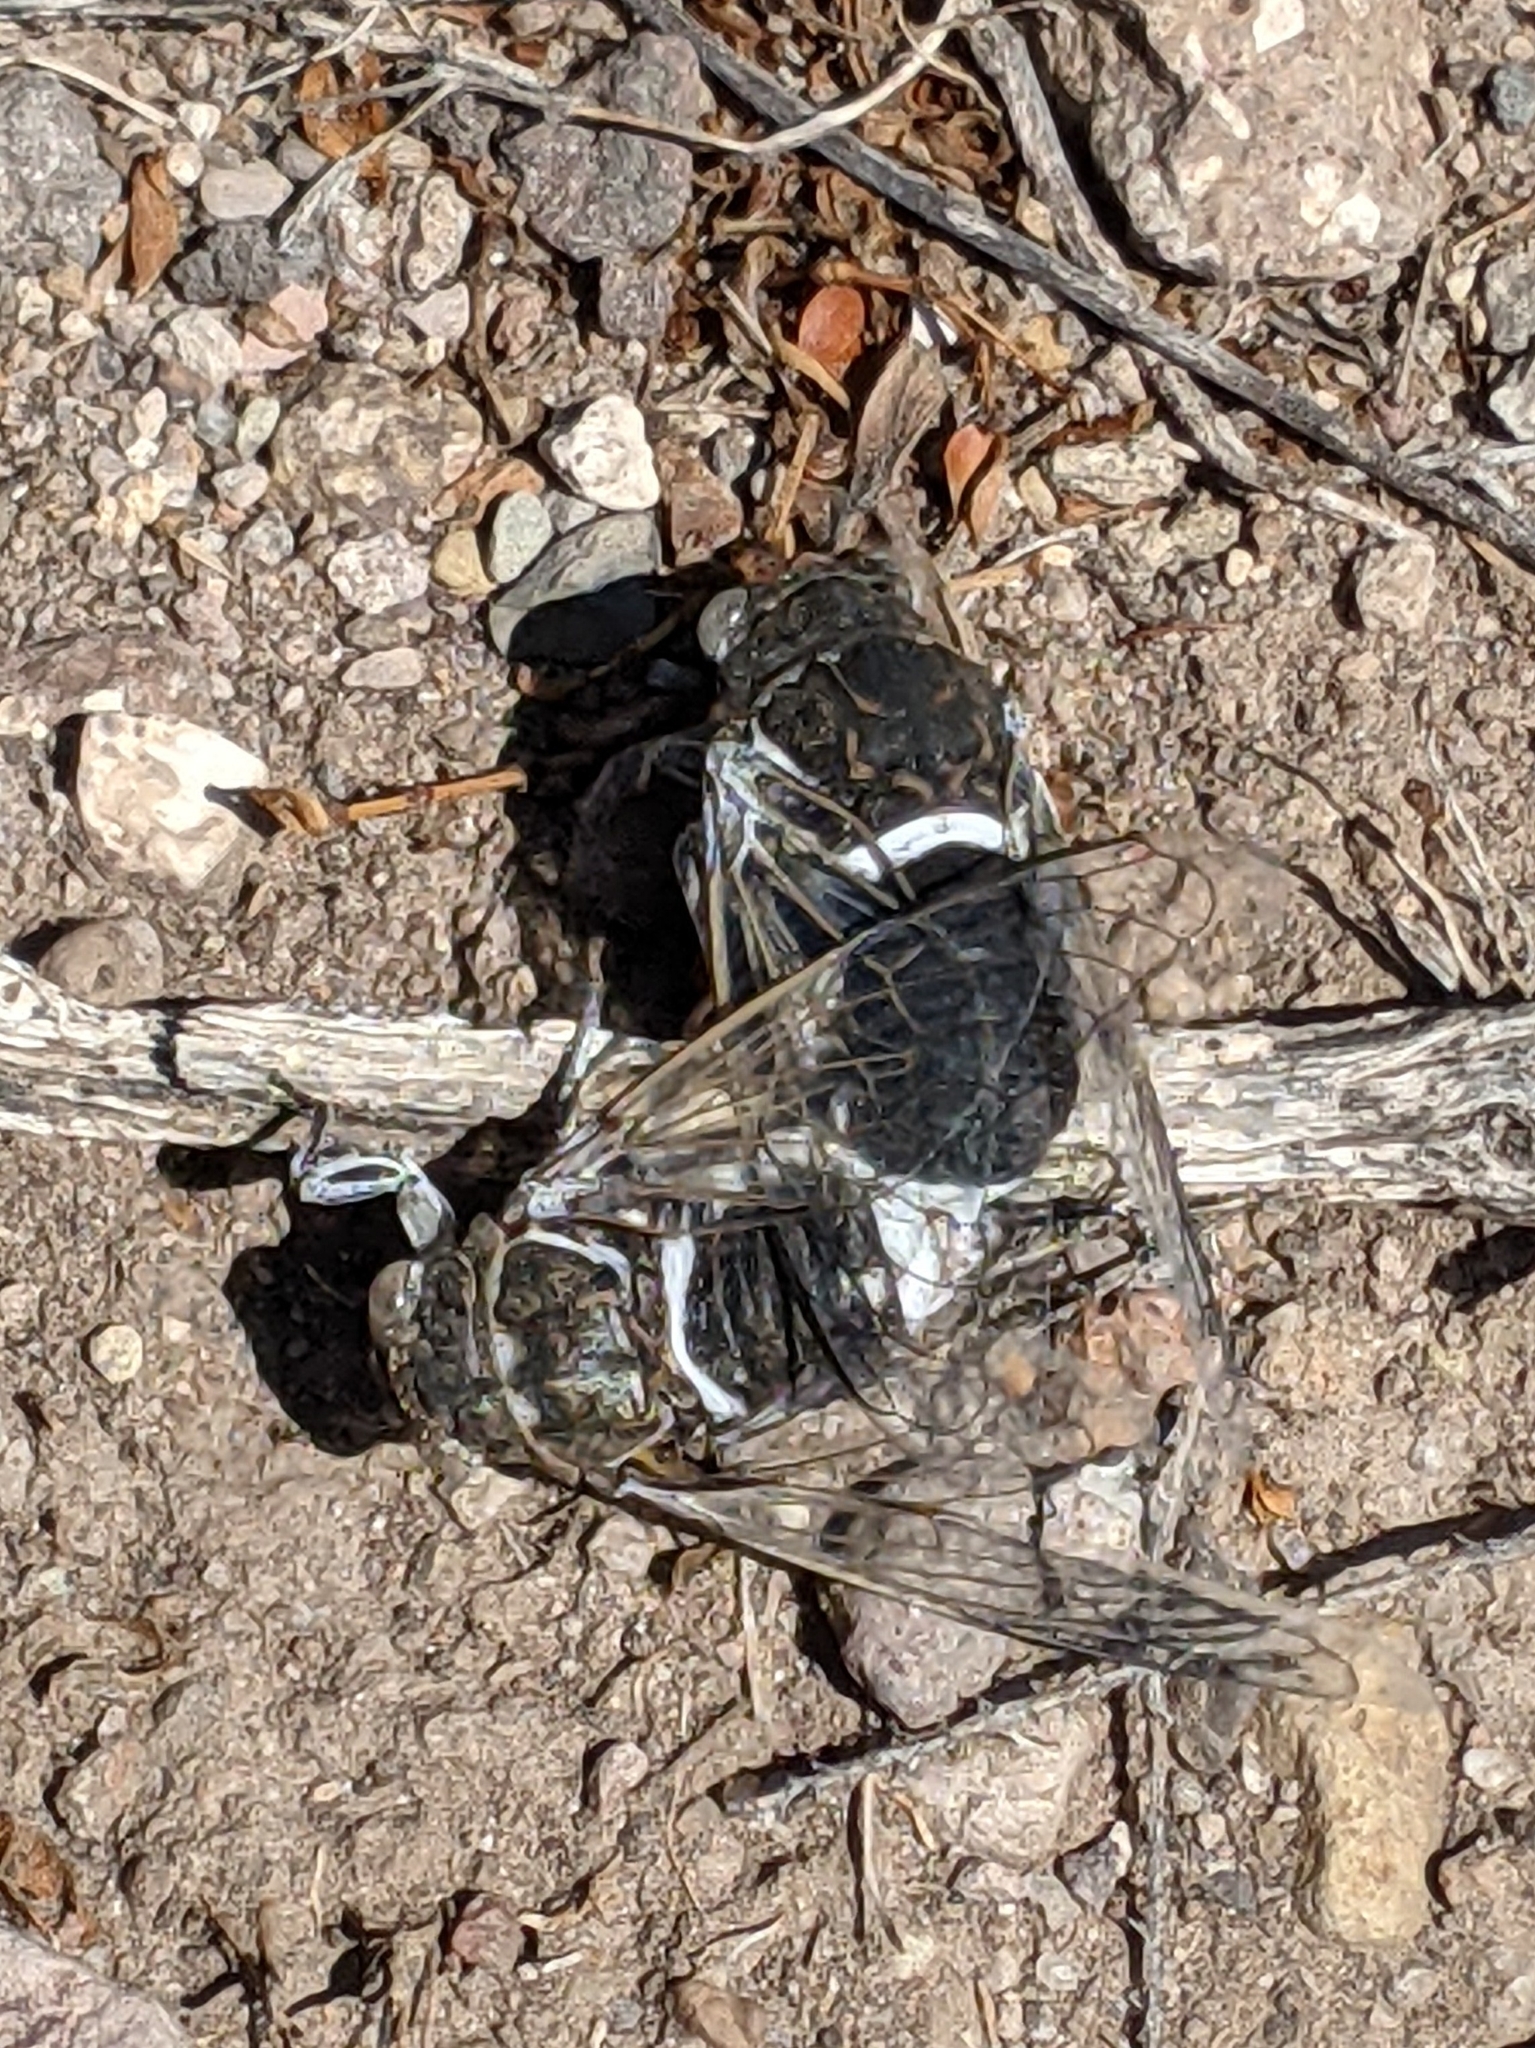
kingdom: Animalia
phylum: Arthropoda
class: Insecta
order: Hemiptera
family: Cicadidae
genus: Cacama
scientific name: Cacama valvata
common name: Cactus dodger
